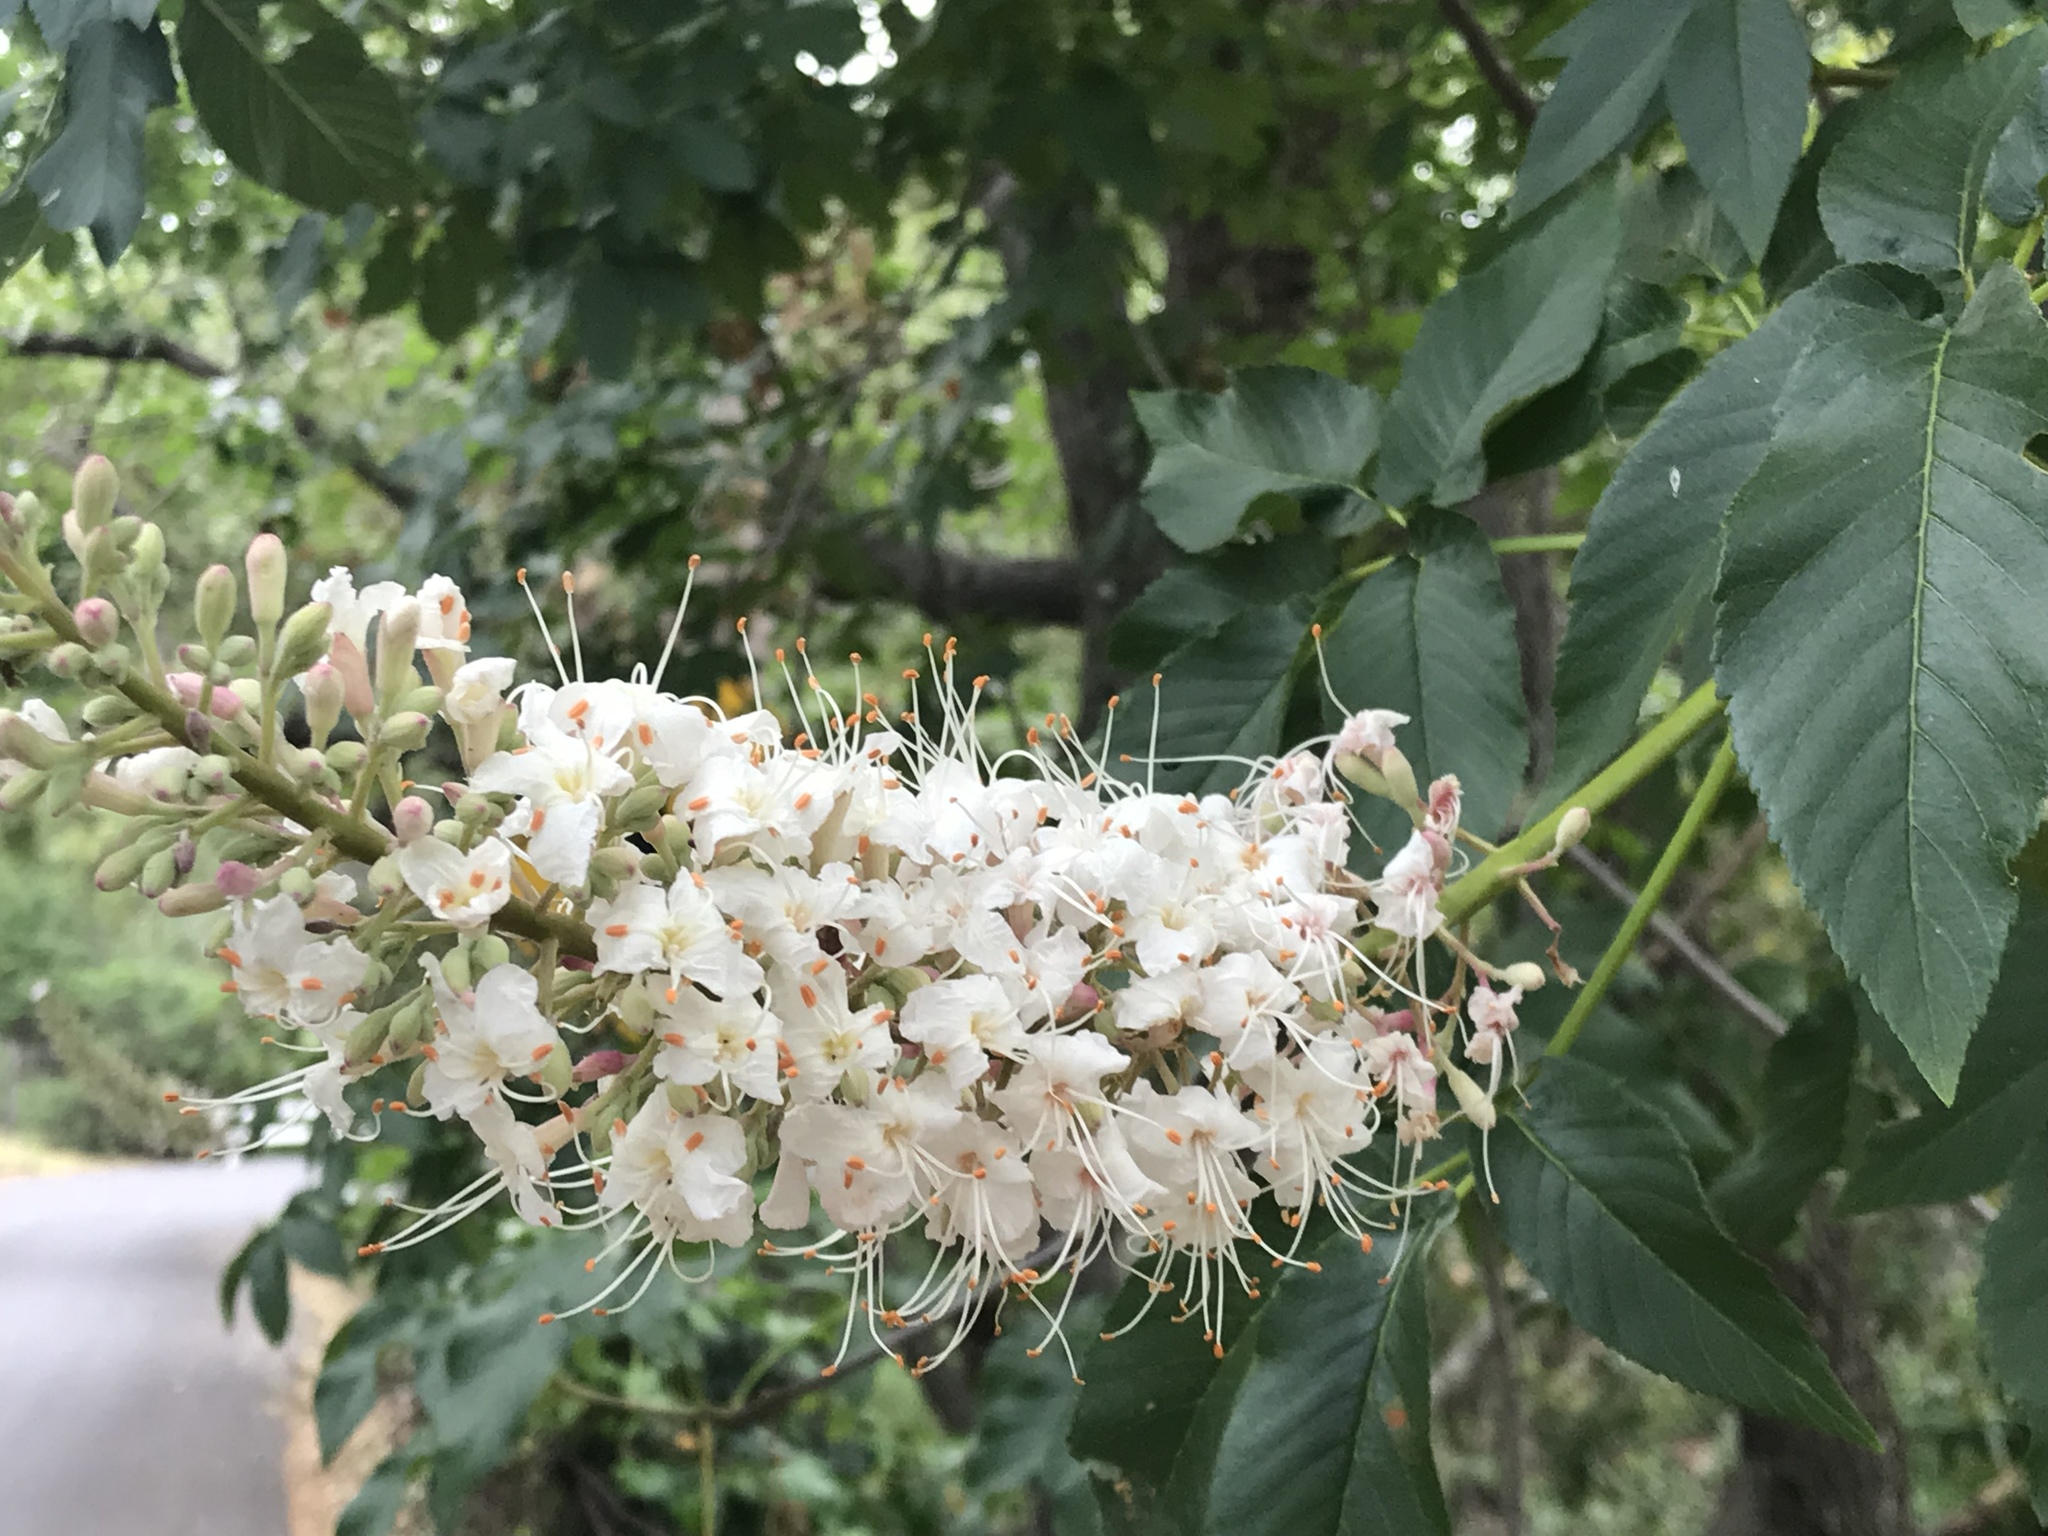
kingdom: Plantae
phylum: Tracheophyta
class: Magnoliopsida
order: Sapindales
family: Sapindaceae
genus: Aesculus
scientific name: Aesculus californica
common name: California buckeye
